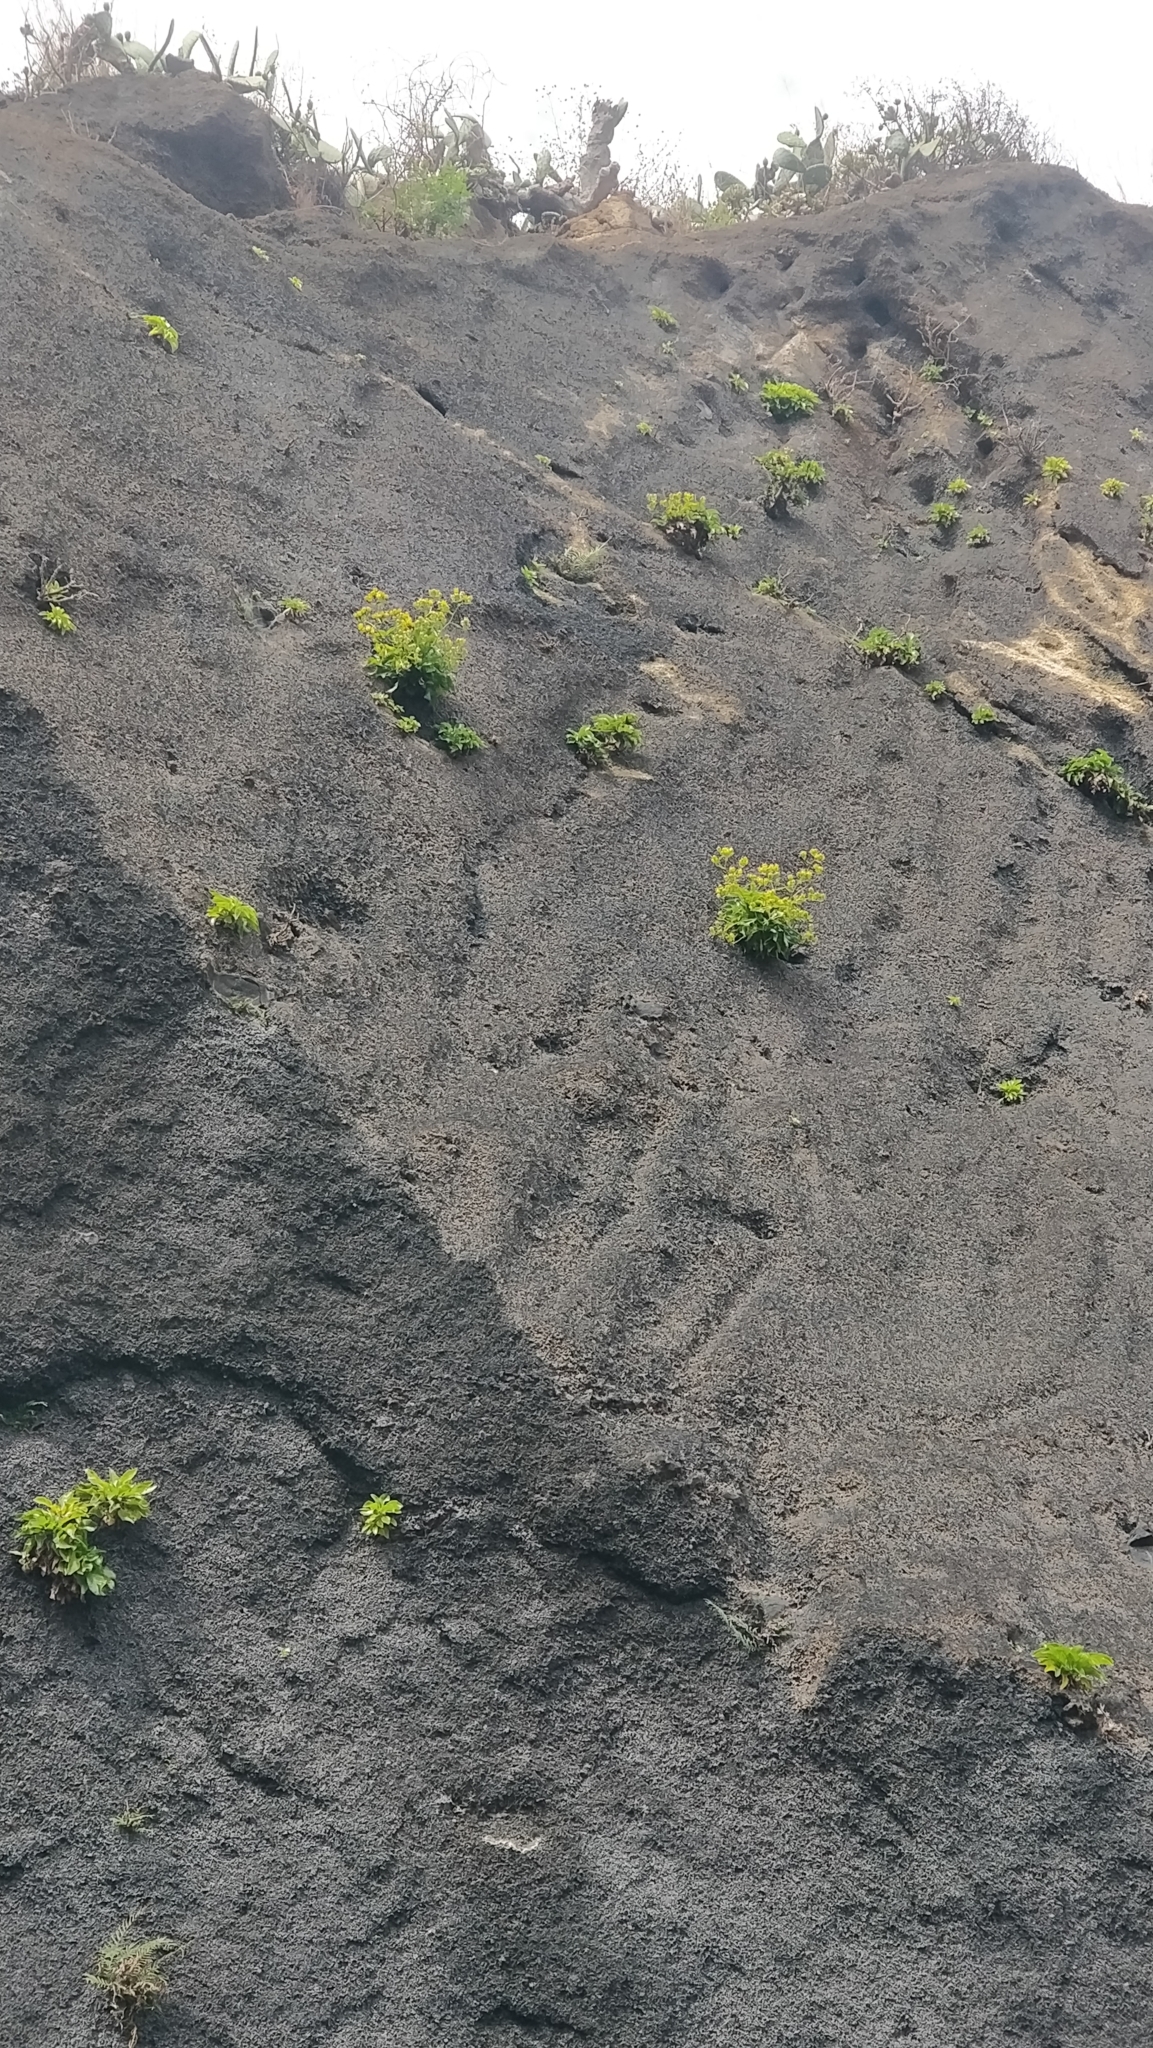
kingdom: Plantae
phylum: Tracheophyta
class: Magnoliopsida
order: Asterales
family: Campanulaceae
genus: Musschia
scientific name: Musschia aurea
